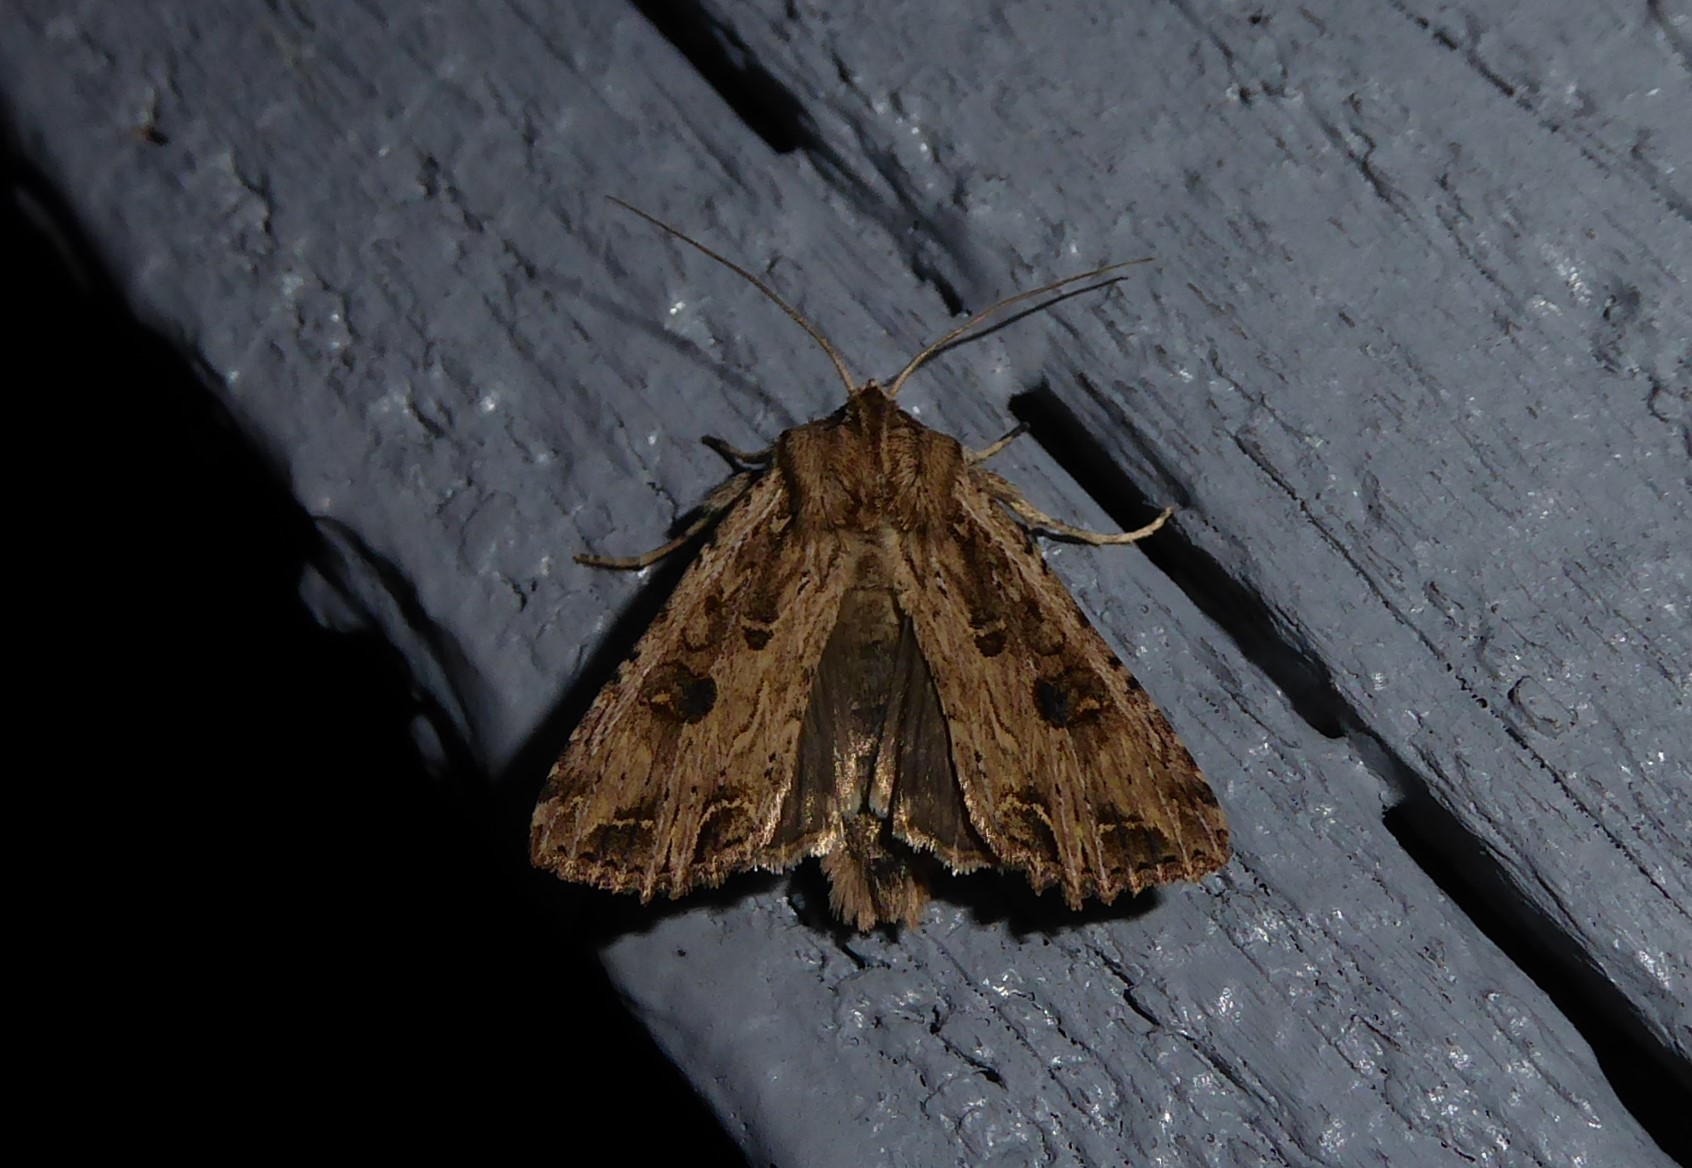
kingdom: Animalia
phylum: Arthropoda
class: Insecta
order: Lepidoptera
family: Noctuidae
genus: Ichneutica
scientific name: Ichneutica lignana
